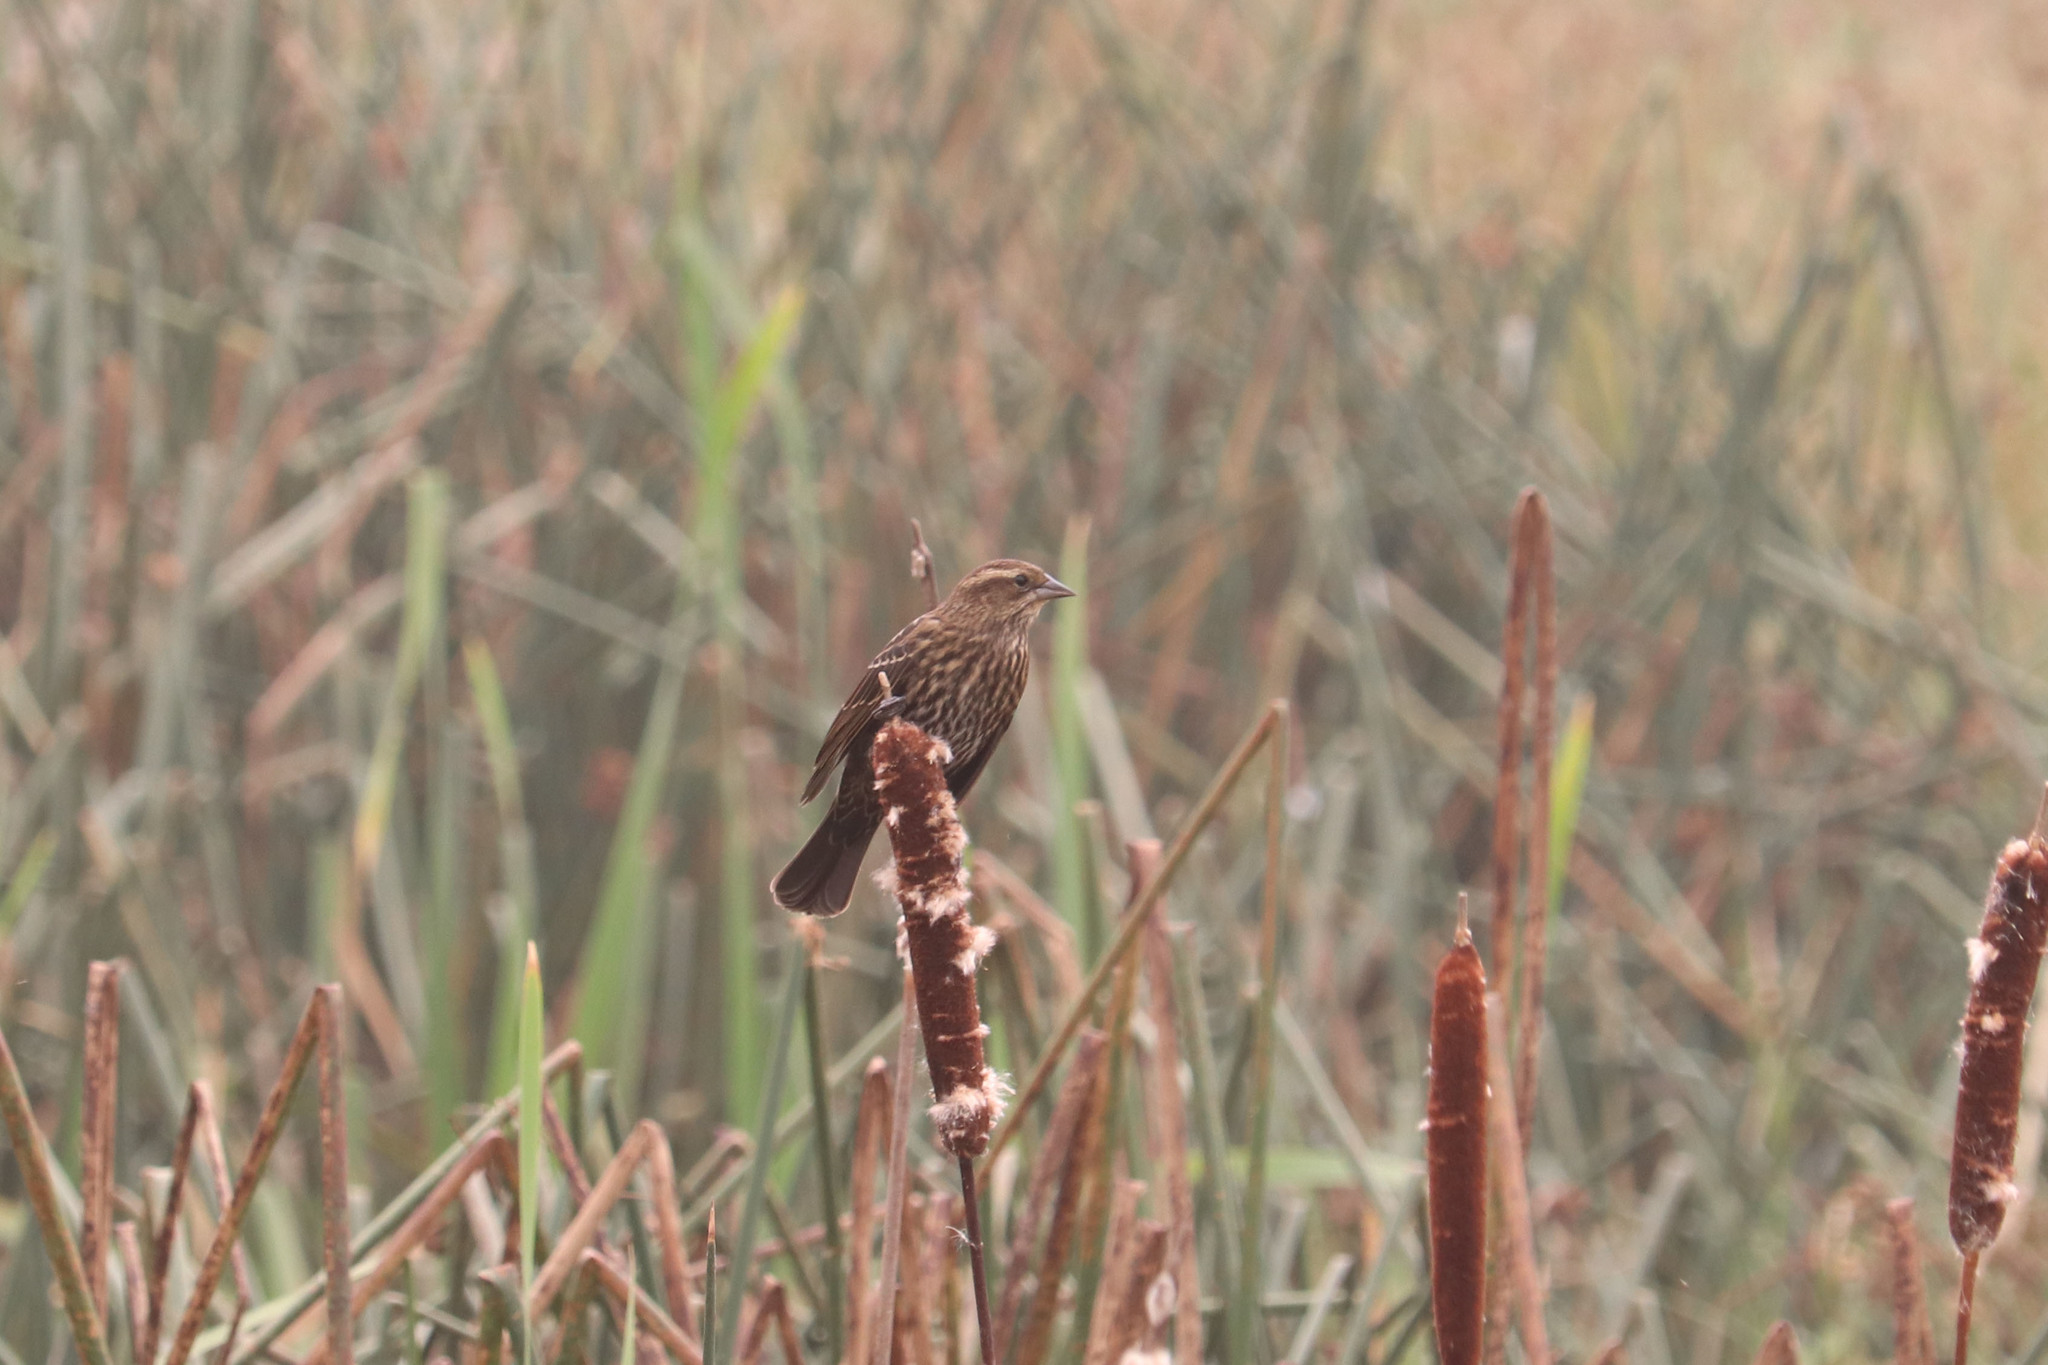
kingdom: Animalia
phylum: Chordata
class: Aves
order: Passeriformes
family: Icteridae
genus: Agelaius
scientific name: Agelaius phoeniceus
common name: Red-winged blackbird
